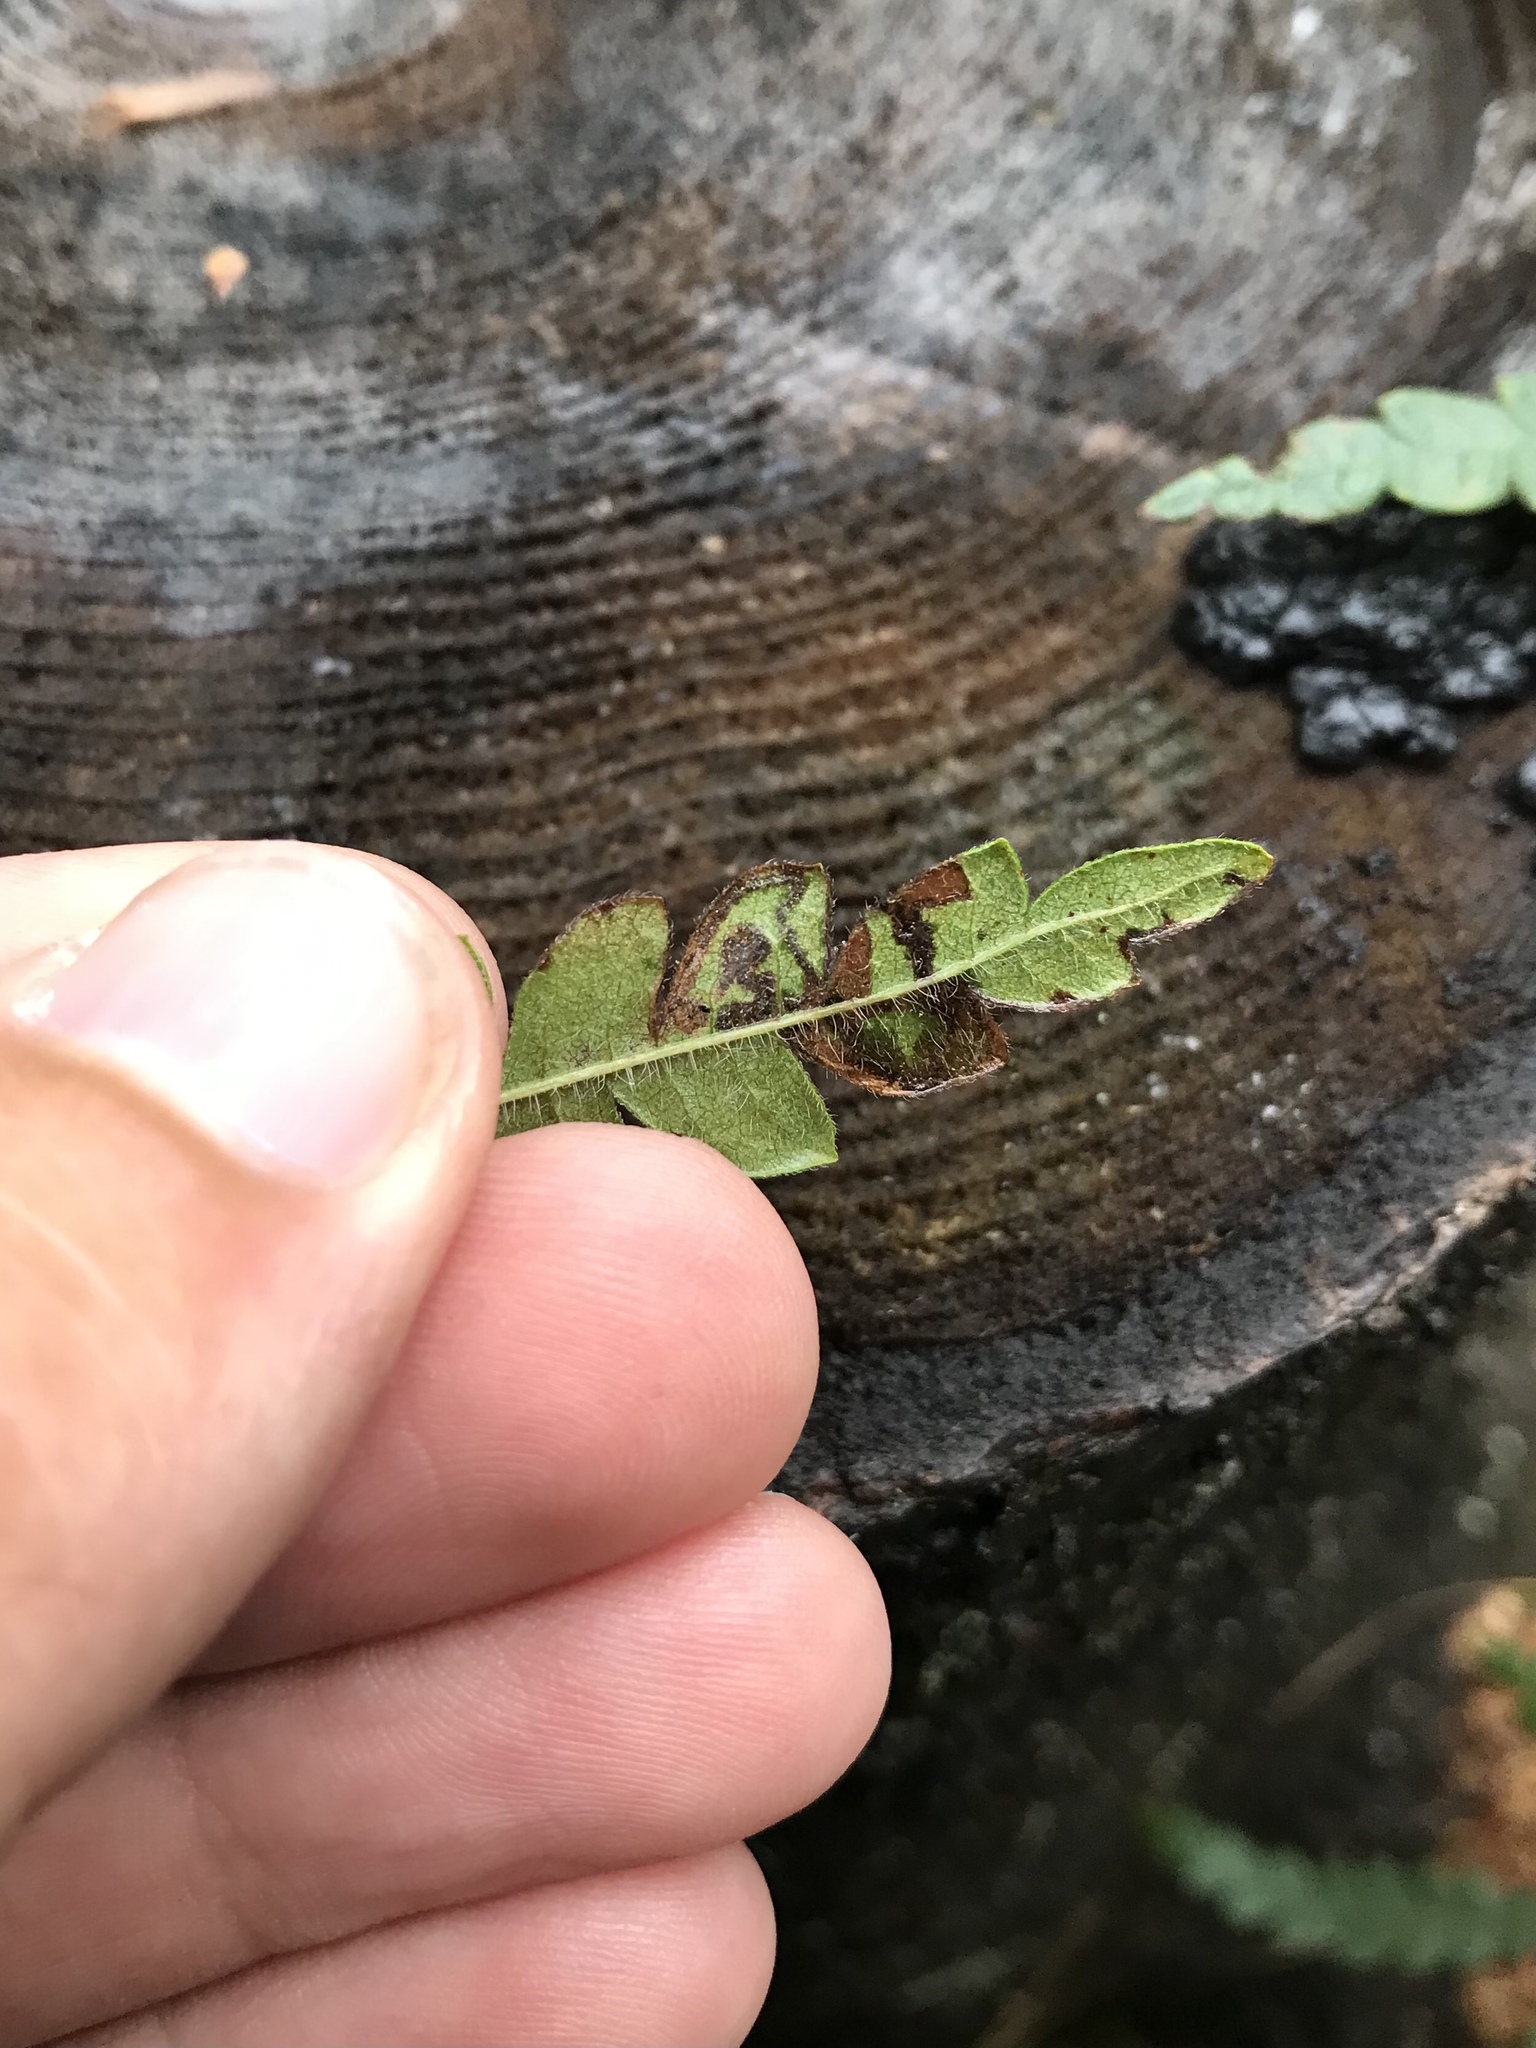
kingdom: Animalia
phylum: Arthropoda
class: Insecta
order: Lepidoptera
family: Nepticulidae
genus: Stigmella
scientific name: Stigmella corylifoliella
